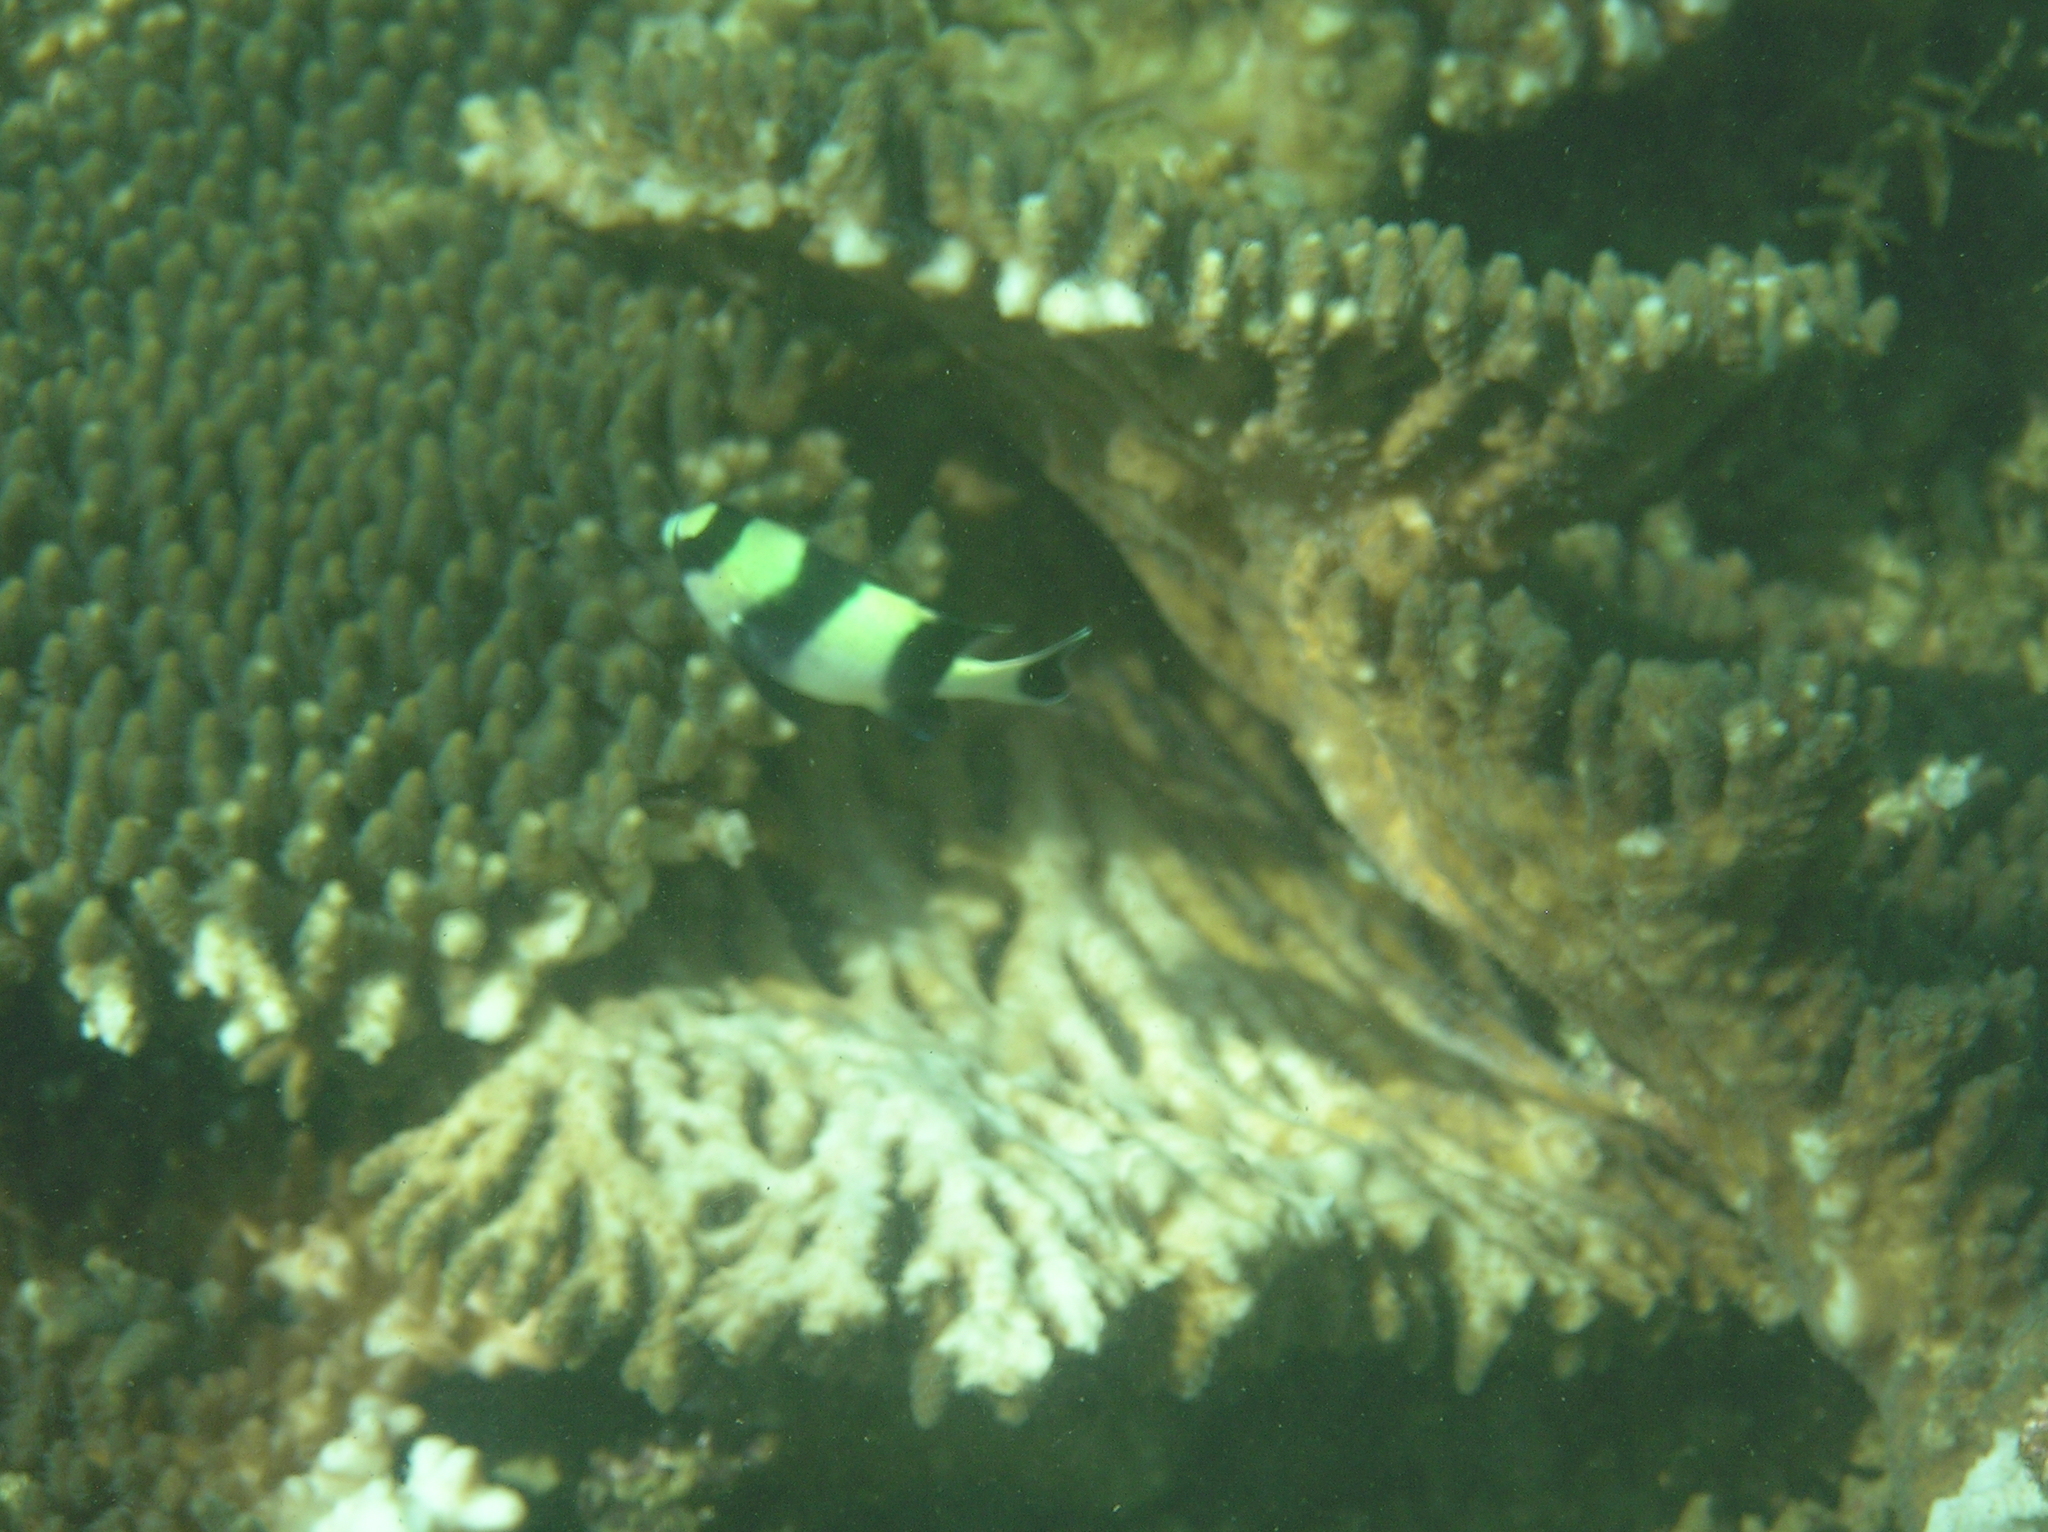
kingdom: Animalia
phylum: Chordata
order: Perciformes
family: Pomacentridae
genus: Dascyllus
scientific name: Dascyllus melanurus
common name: Black-tail dascyllus
